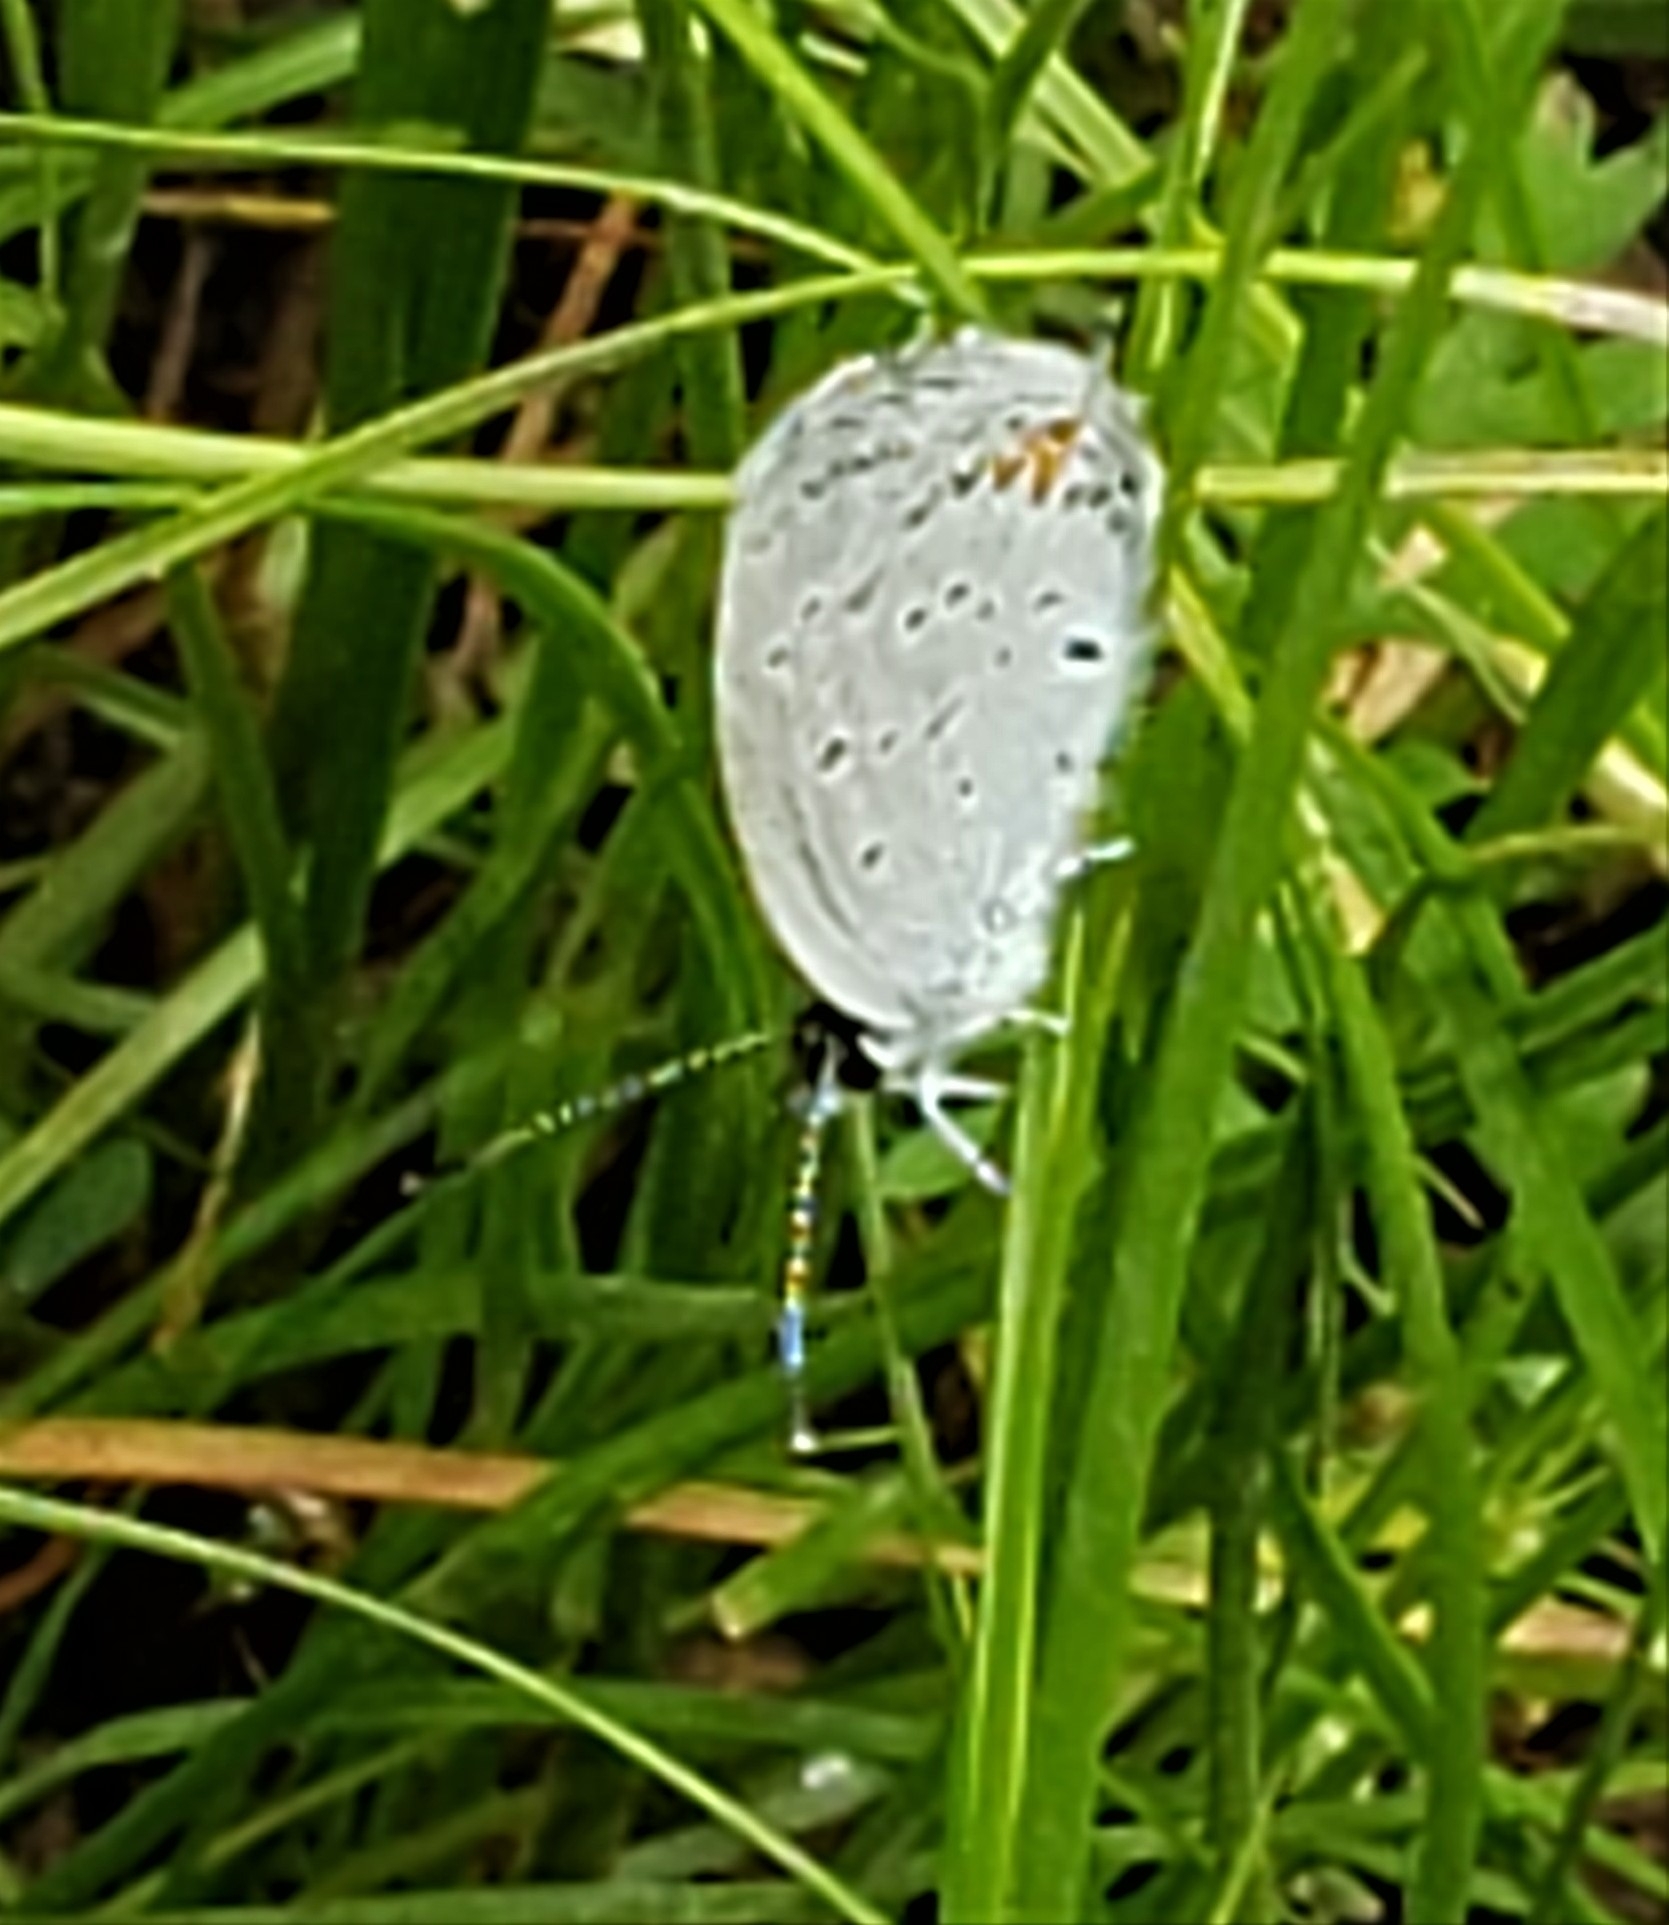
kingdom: Animalia
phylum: Arthropoda
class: Insecta
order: Lepidoptera
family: Lycaenidae
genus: Elkalyce
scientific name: Elkalyce comyntas
